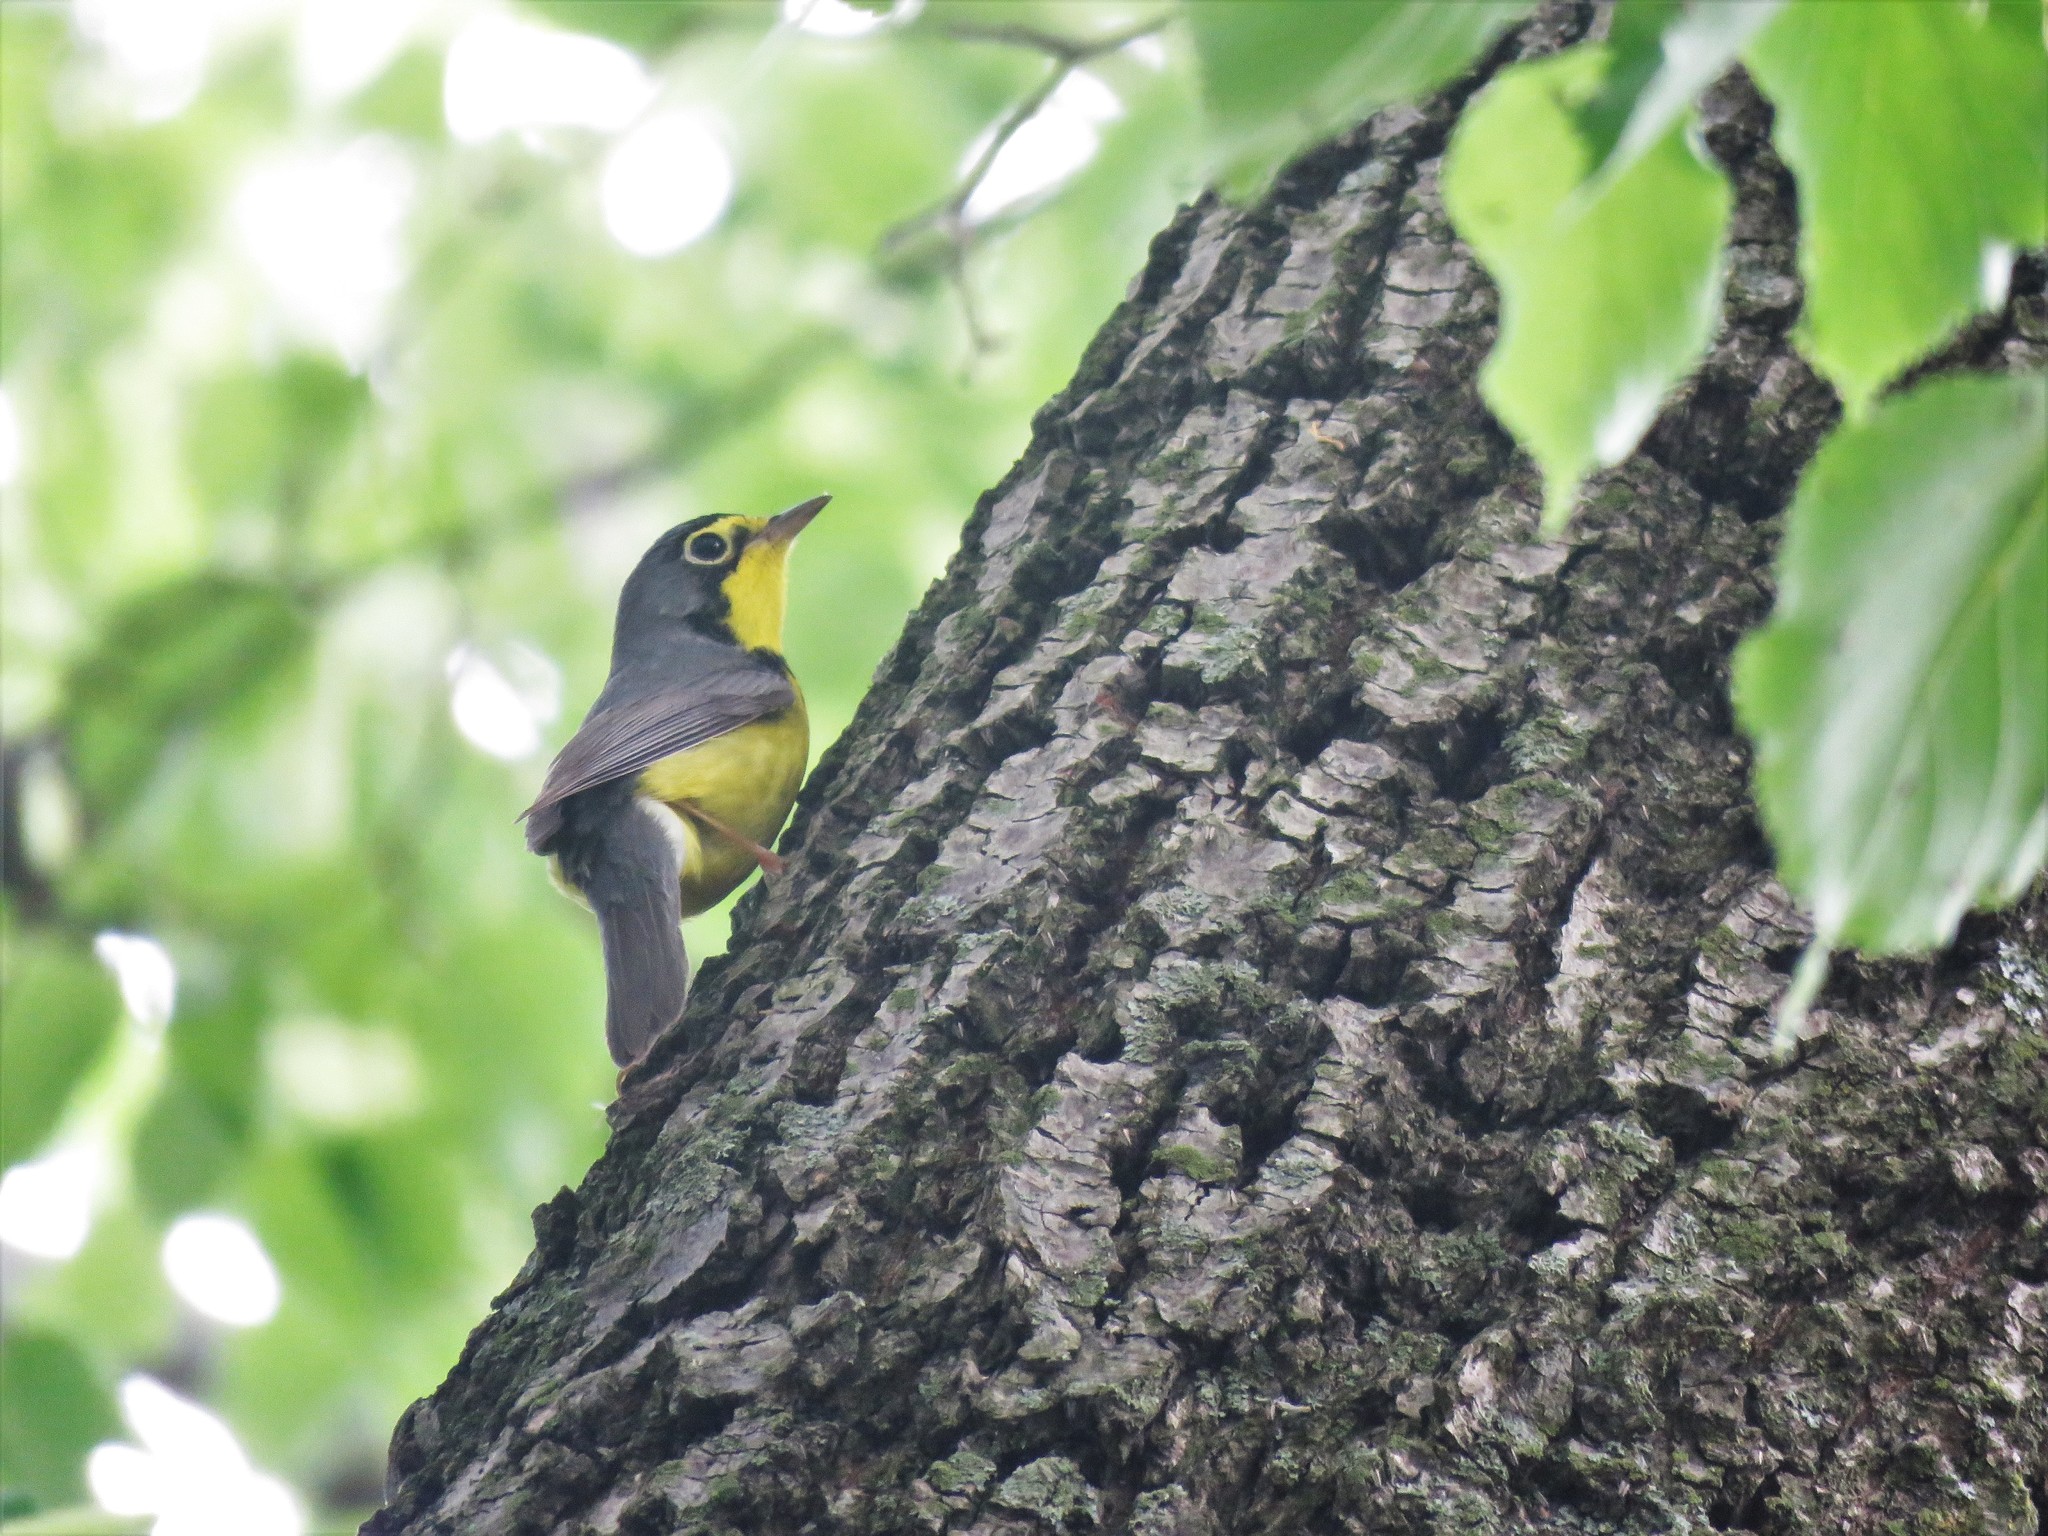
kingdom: Animalia
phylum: Chordata
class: Aves
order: Passeriformes
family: Parulidae
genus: Cardellina
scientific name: Cardellina canadensis
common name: Canada warbler
